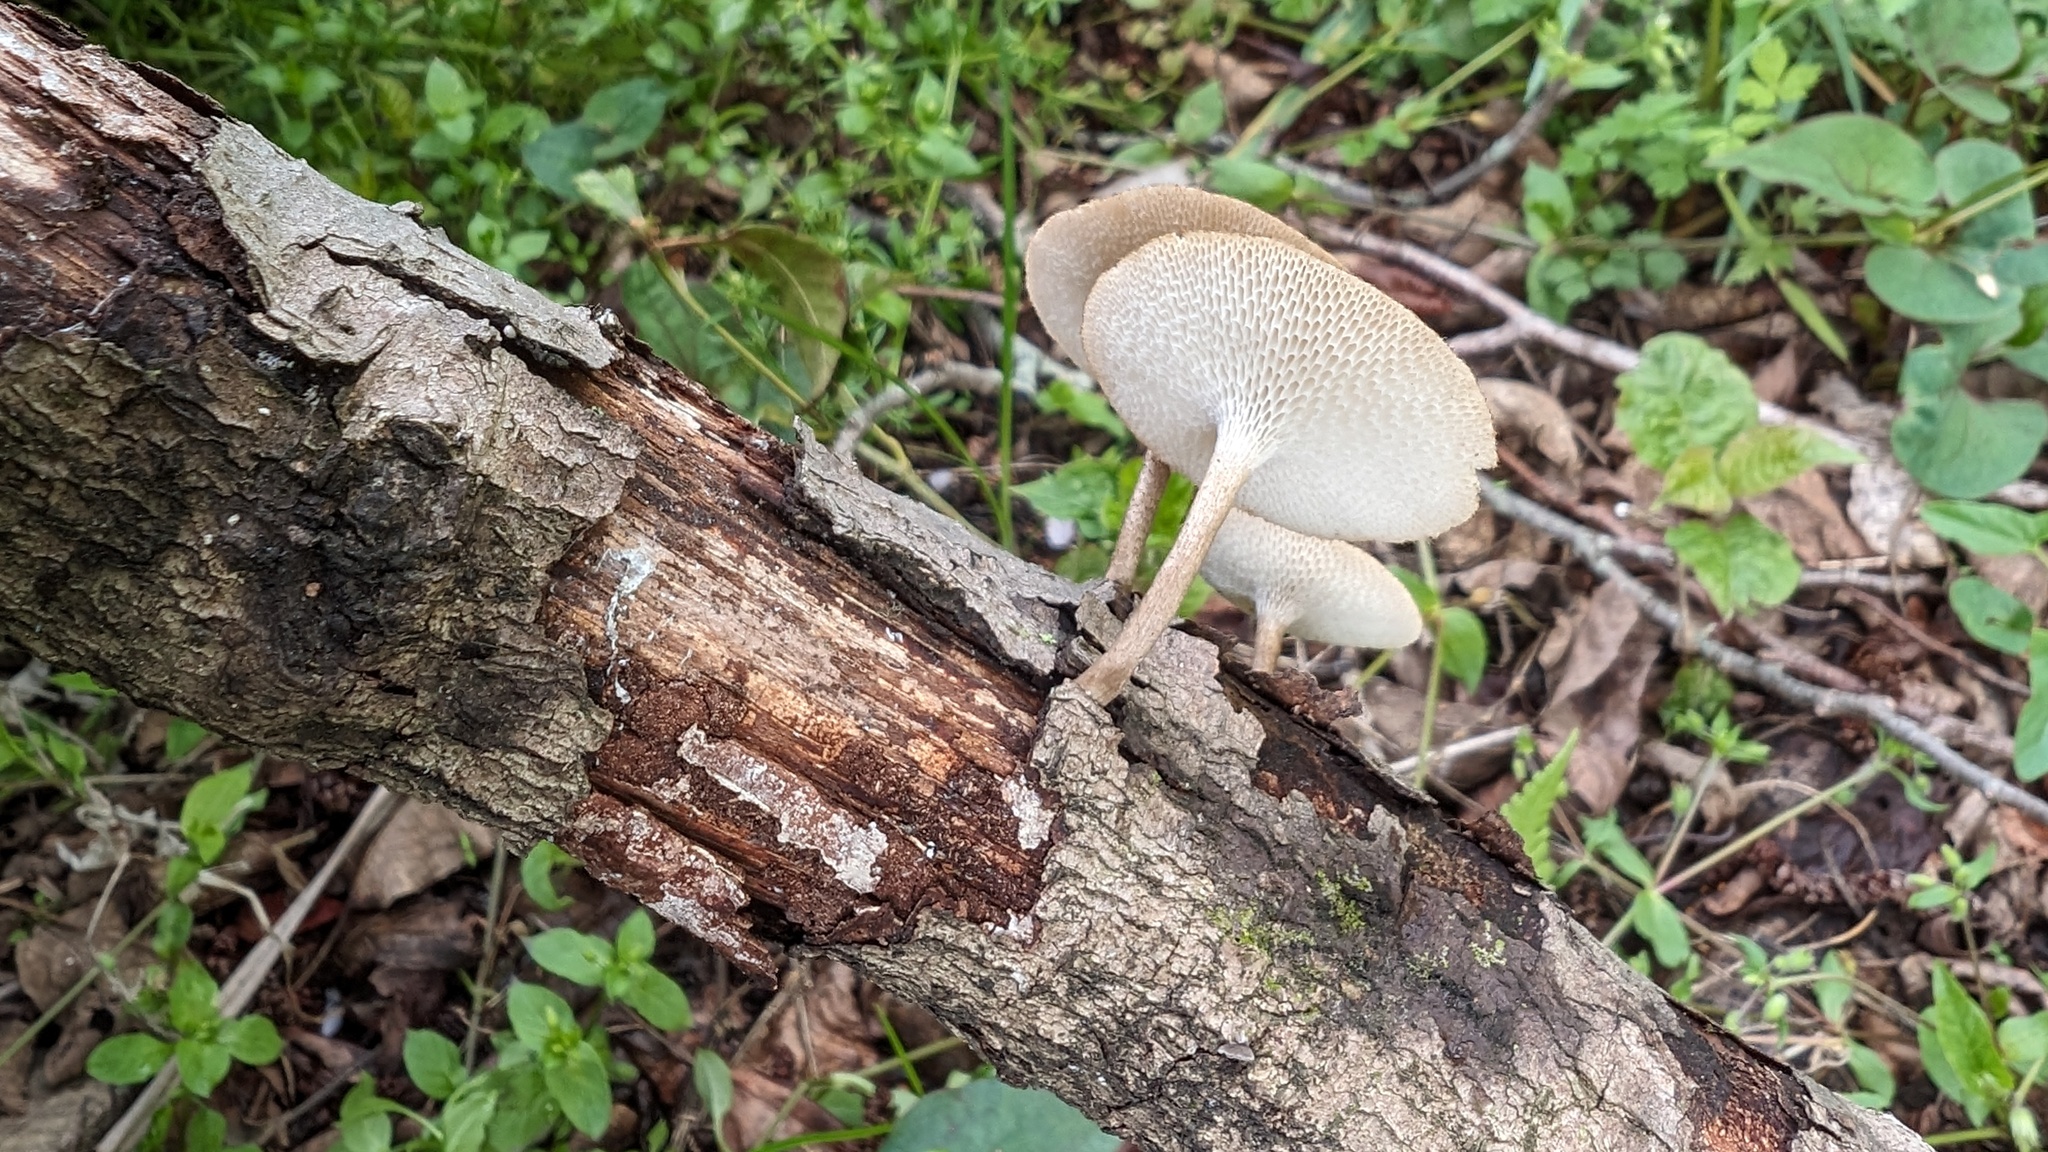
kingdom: Fungi
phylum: Basidiomycota
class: Agaricomycetes
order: Polyporales
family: Polyporaceae
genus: Lentinus
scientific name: Lentinus arcularius
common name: Spring polypore
